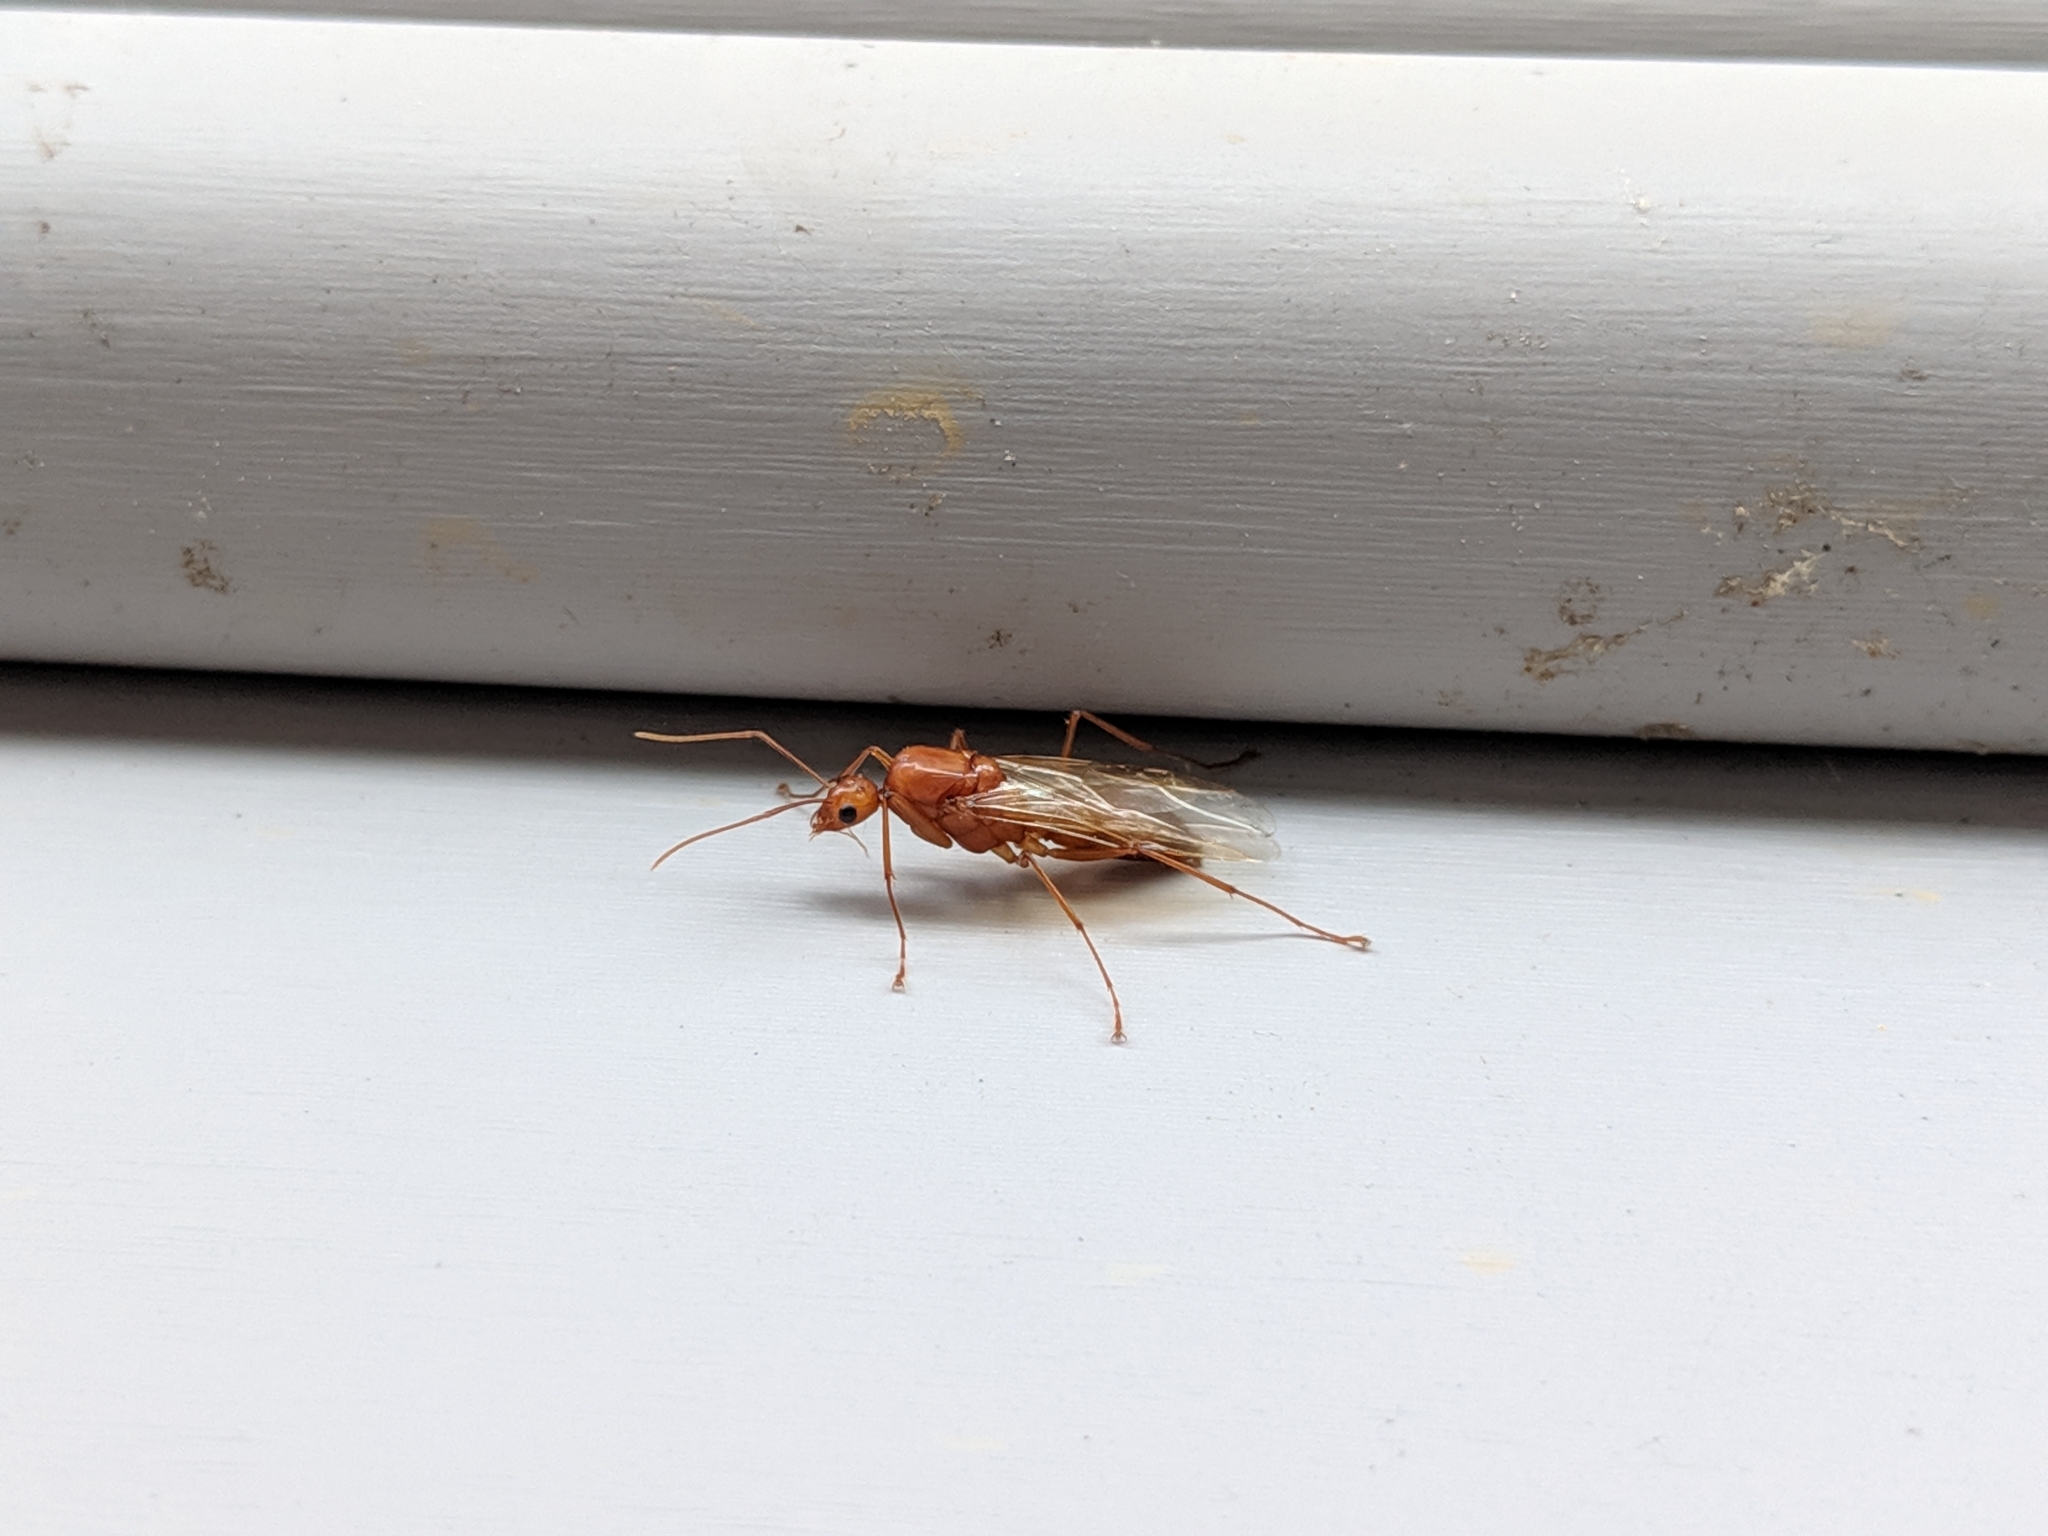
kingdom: Animalia
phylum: Arthropoda
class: Insecta
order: Hymenoptera
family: Formicidae
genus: Camponotus
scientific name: Camponotus castaneus
